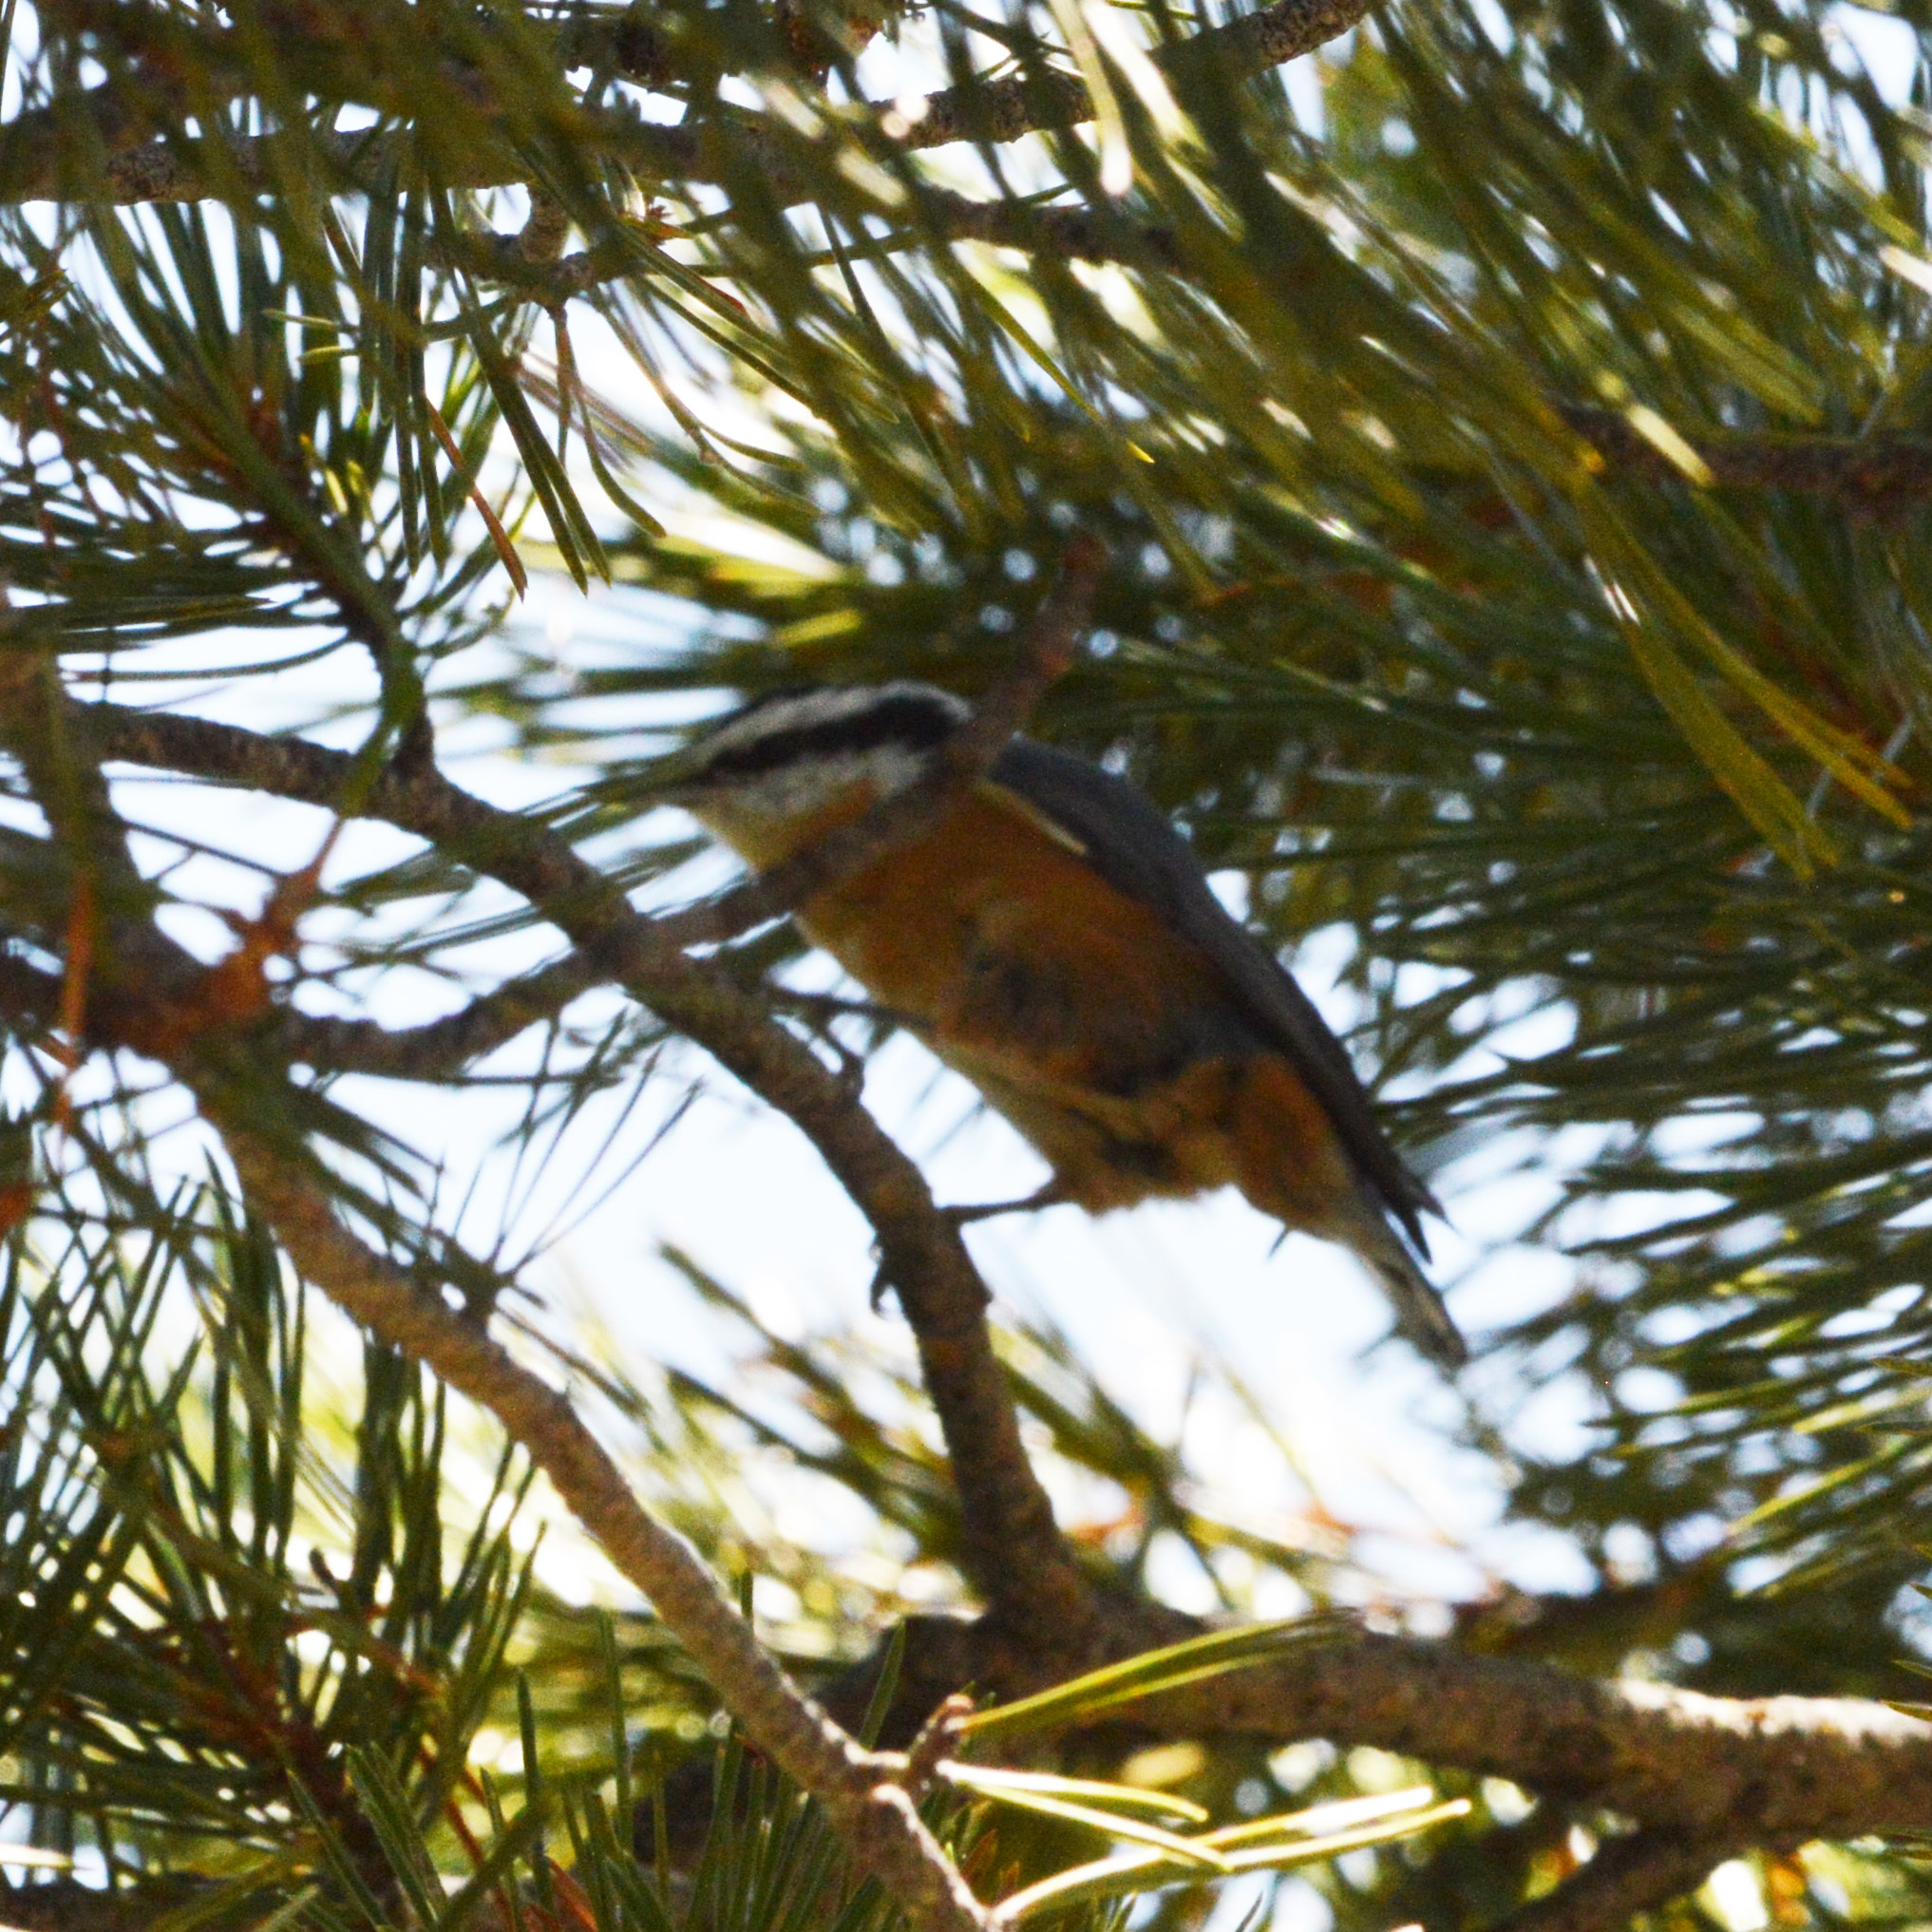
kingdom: Animalia
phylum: Chordata
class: Aves
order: Passeriformes
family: Sittidae
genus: Sitta
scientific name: Sitta canadensis
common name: Red-breasted nuthatch
